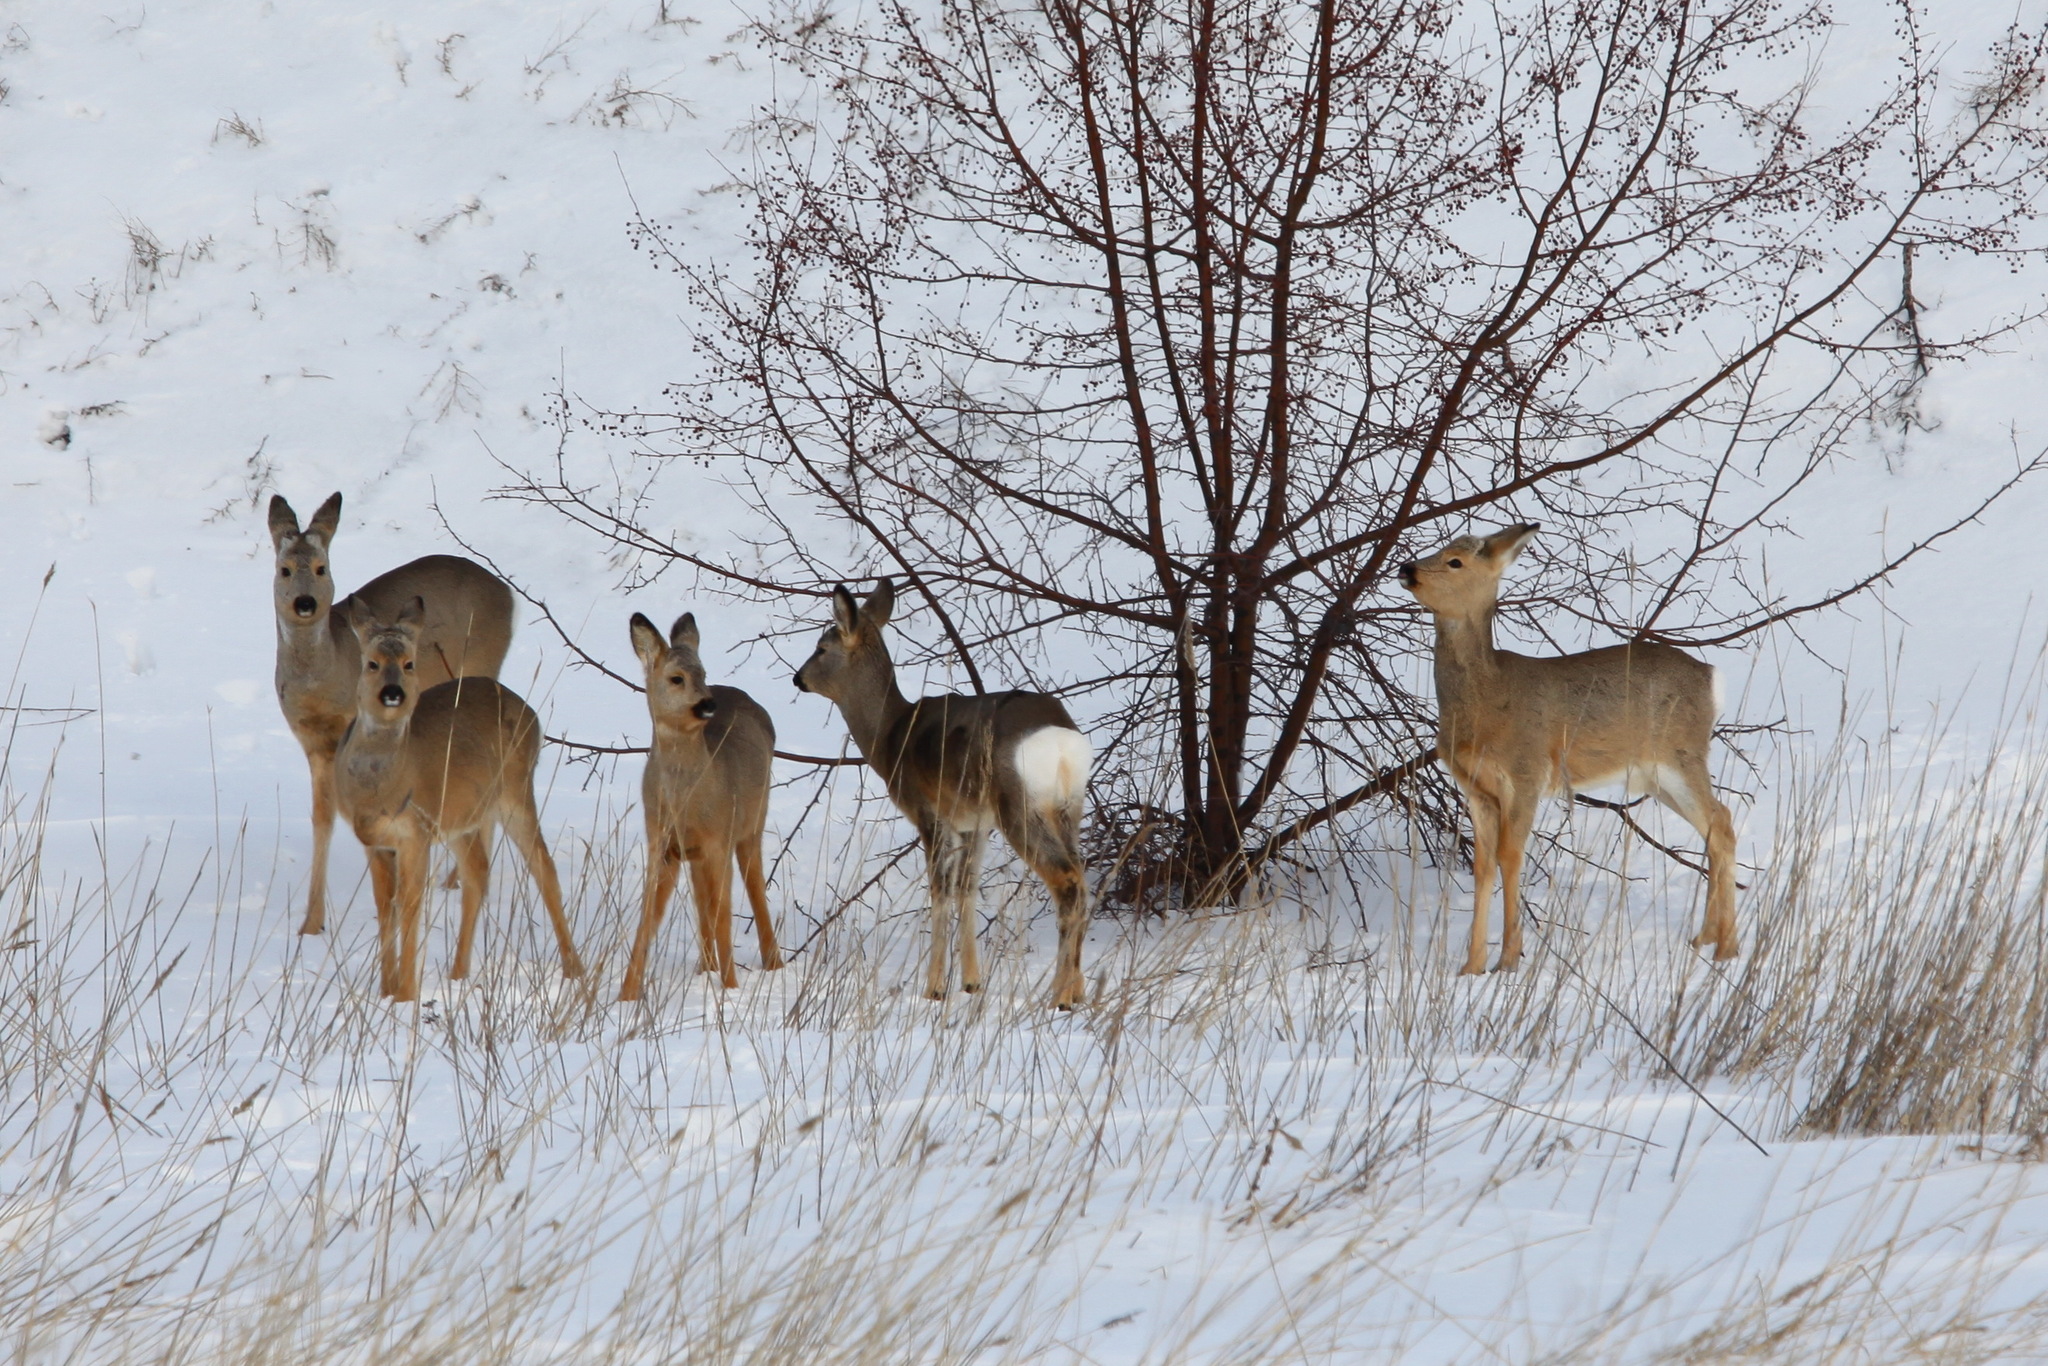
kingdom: Animalia
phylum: Chordata
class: Mammalia
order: Artiodactyla
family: Cervidae
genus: Capreolus
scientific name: Capreolus pygargus
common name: Siberian roe
